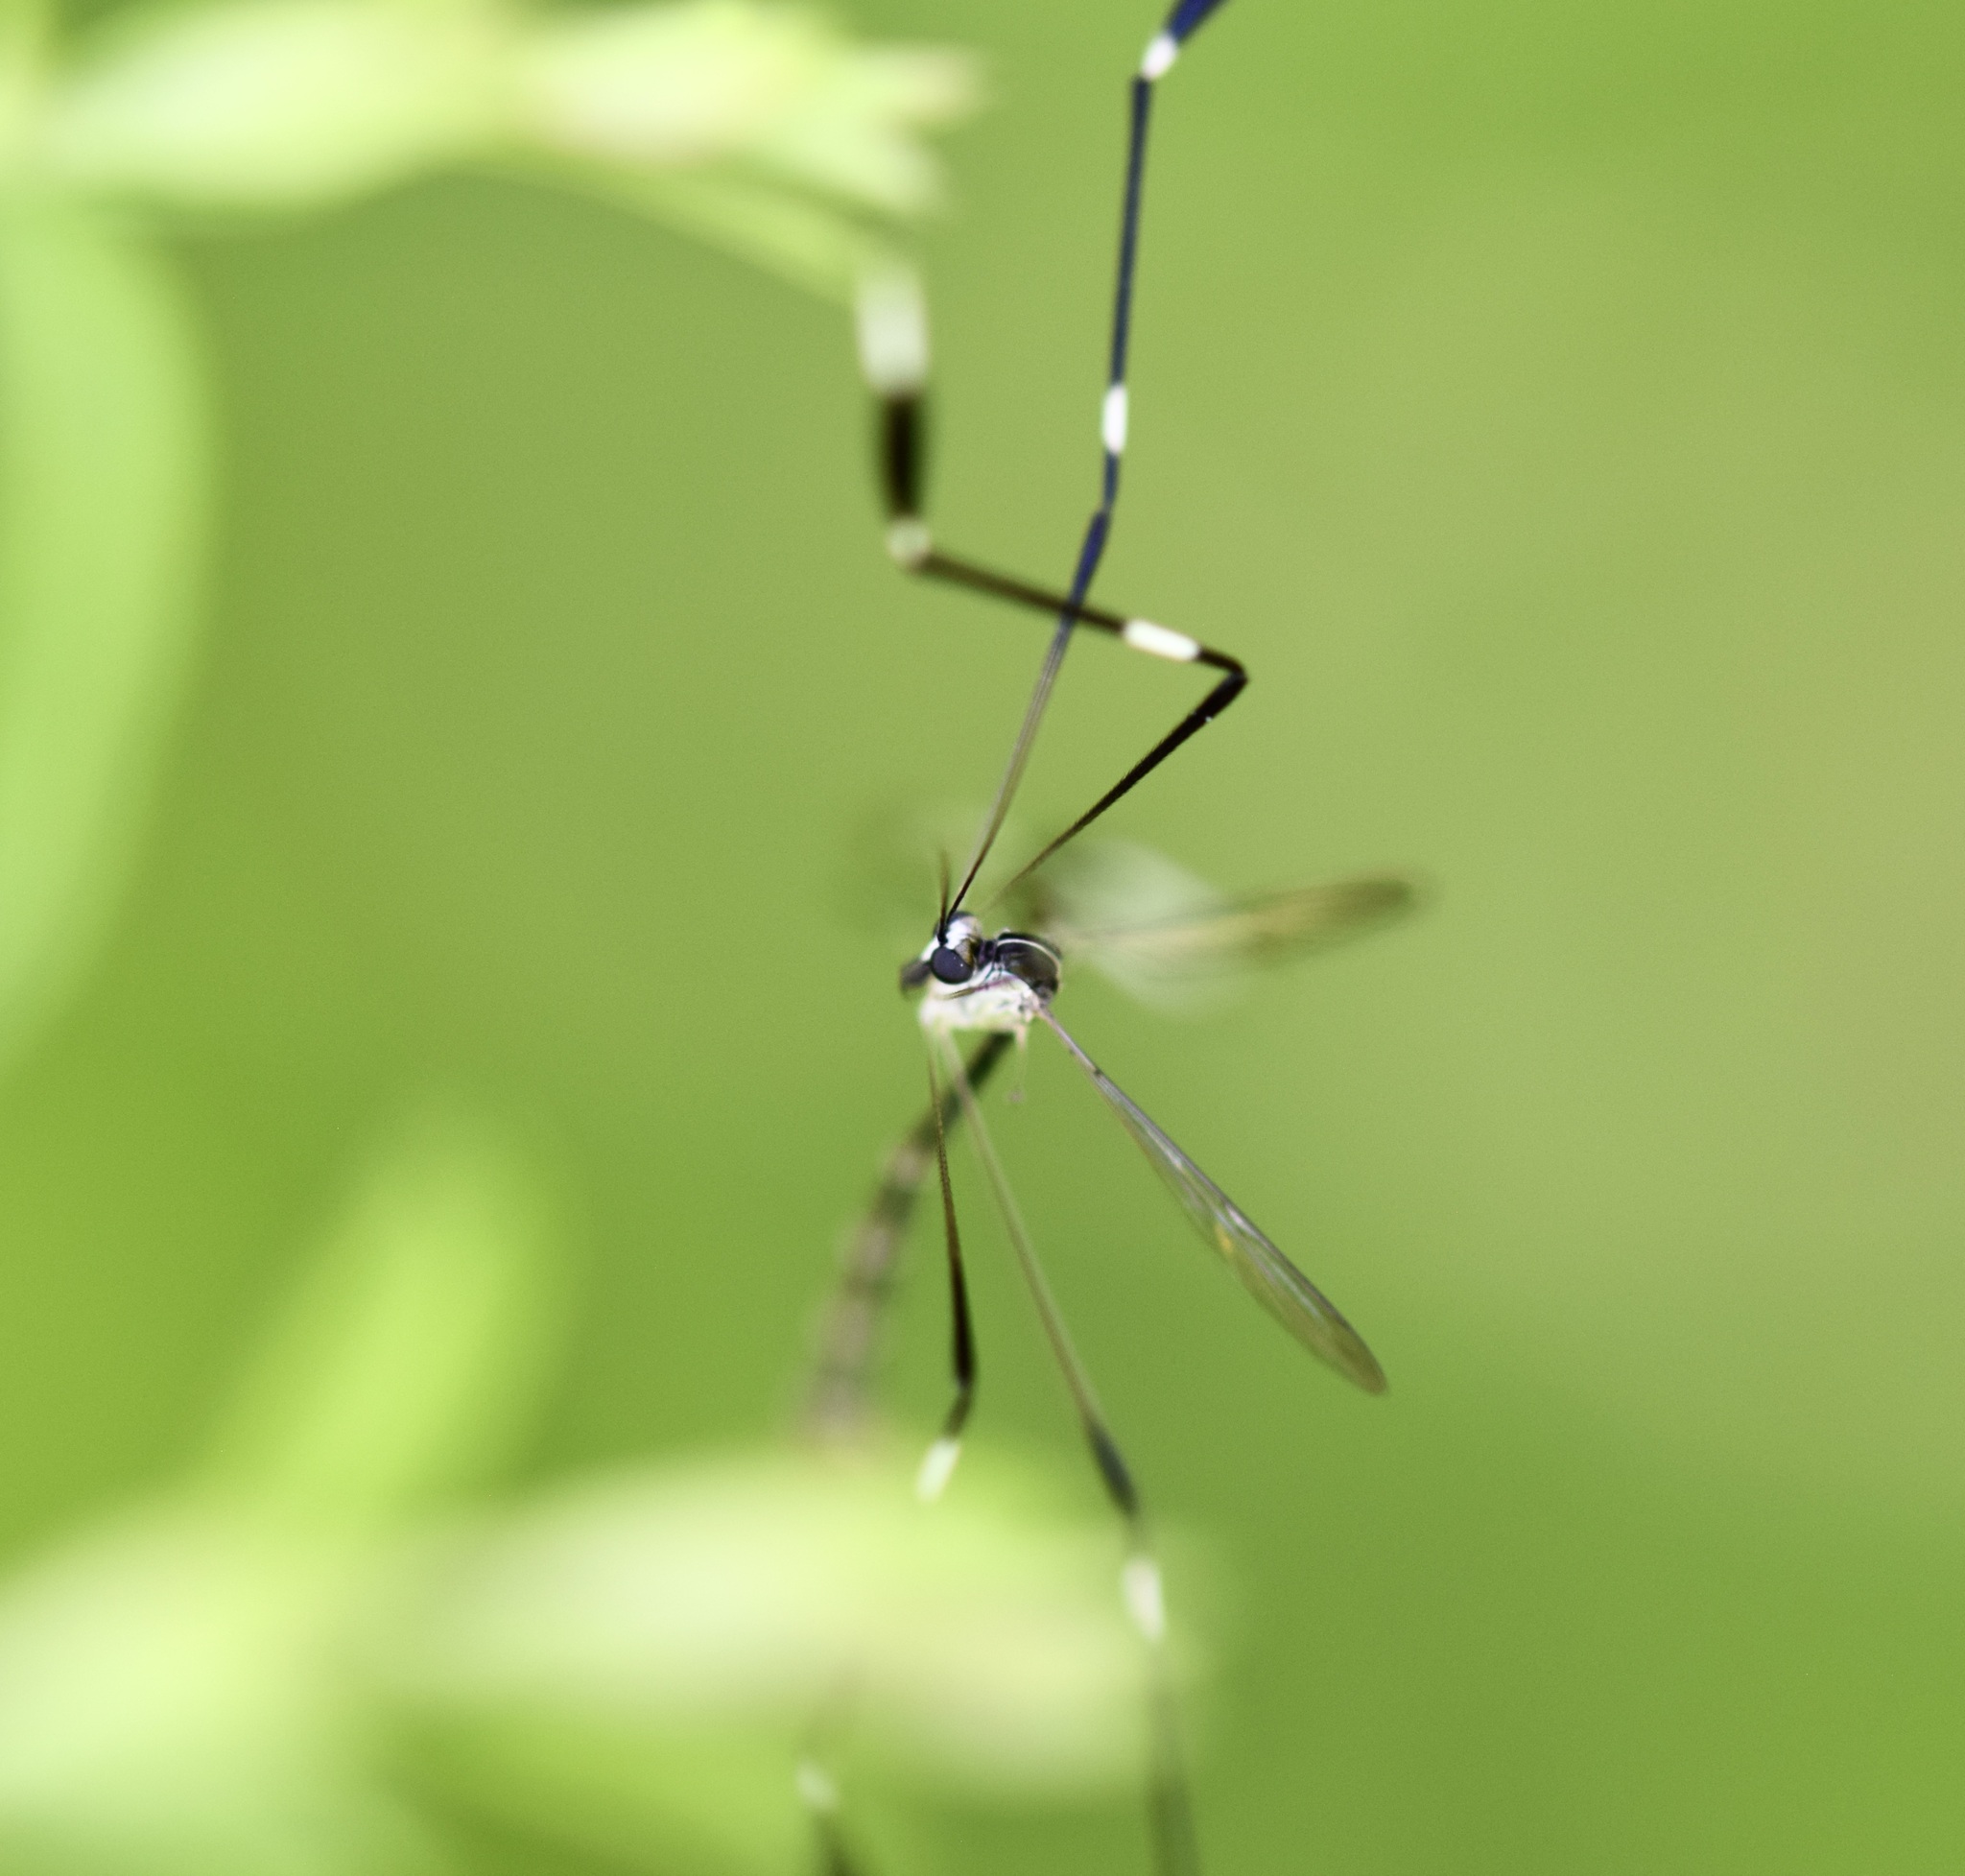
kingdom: Animalia
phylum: Arthropoda
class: Insecta
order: Diptera
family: Ptychopteridae
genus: Bittacomorpha
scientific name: Bittacomorpha clavipes
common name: Eastern phantom crane fly
